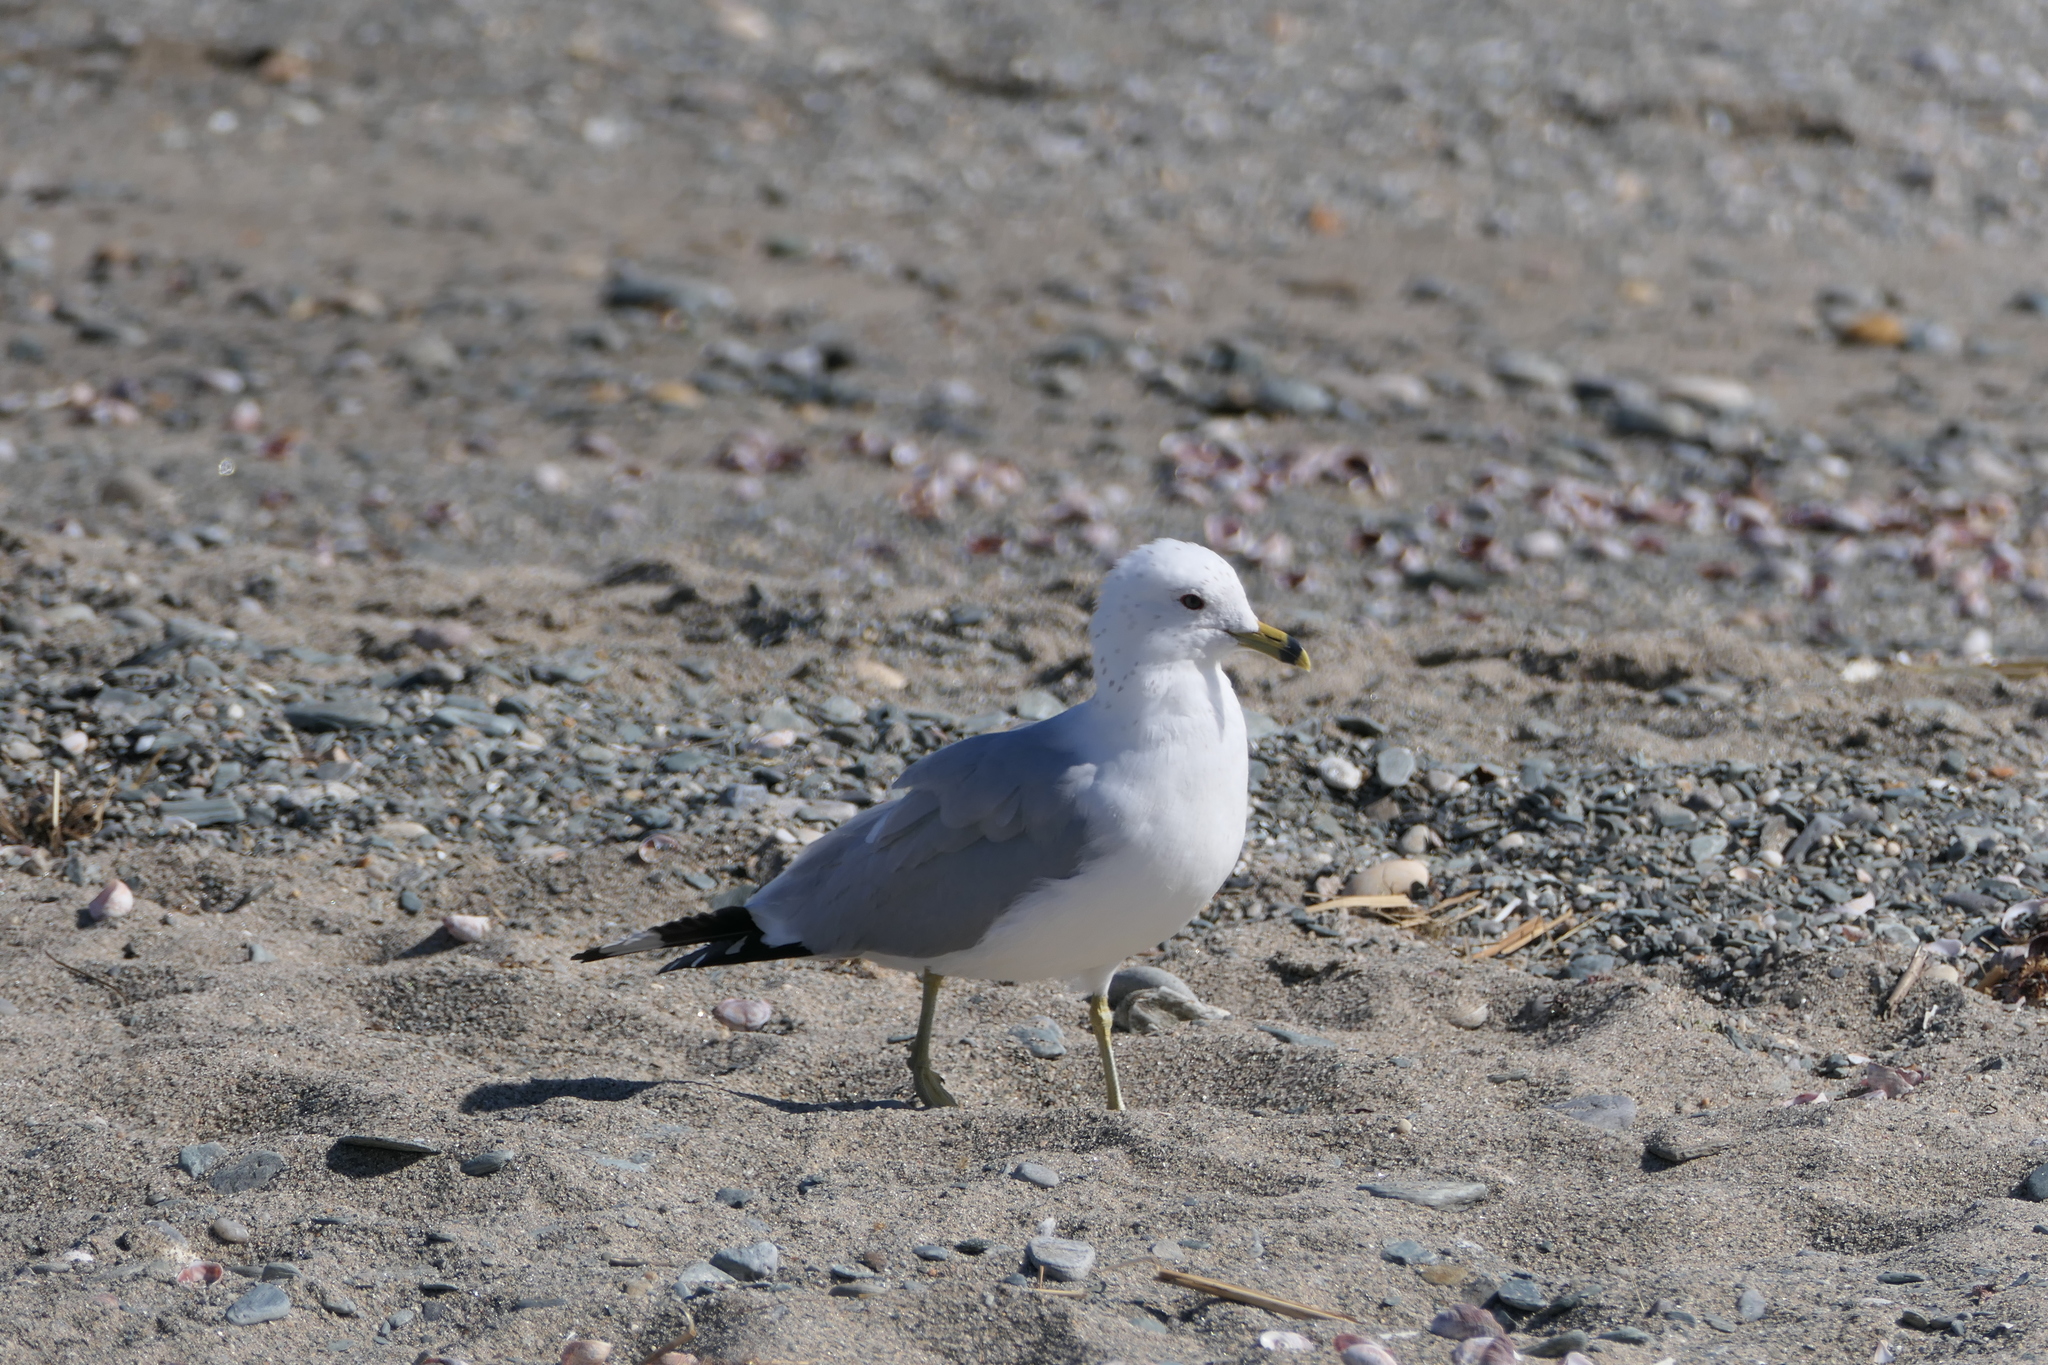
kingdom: Animalia
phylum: Chordata
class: Aves
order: Charadriiformes
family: Laridae
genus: Larus
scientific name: Larus delawarensis
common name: Ring-billed gull
